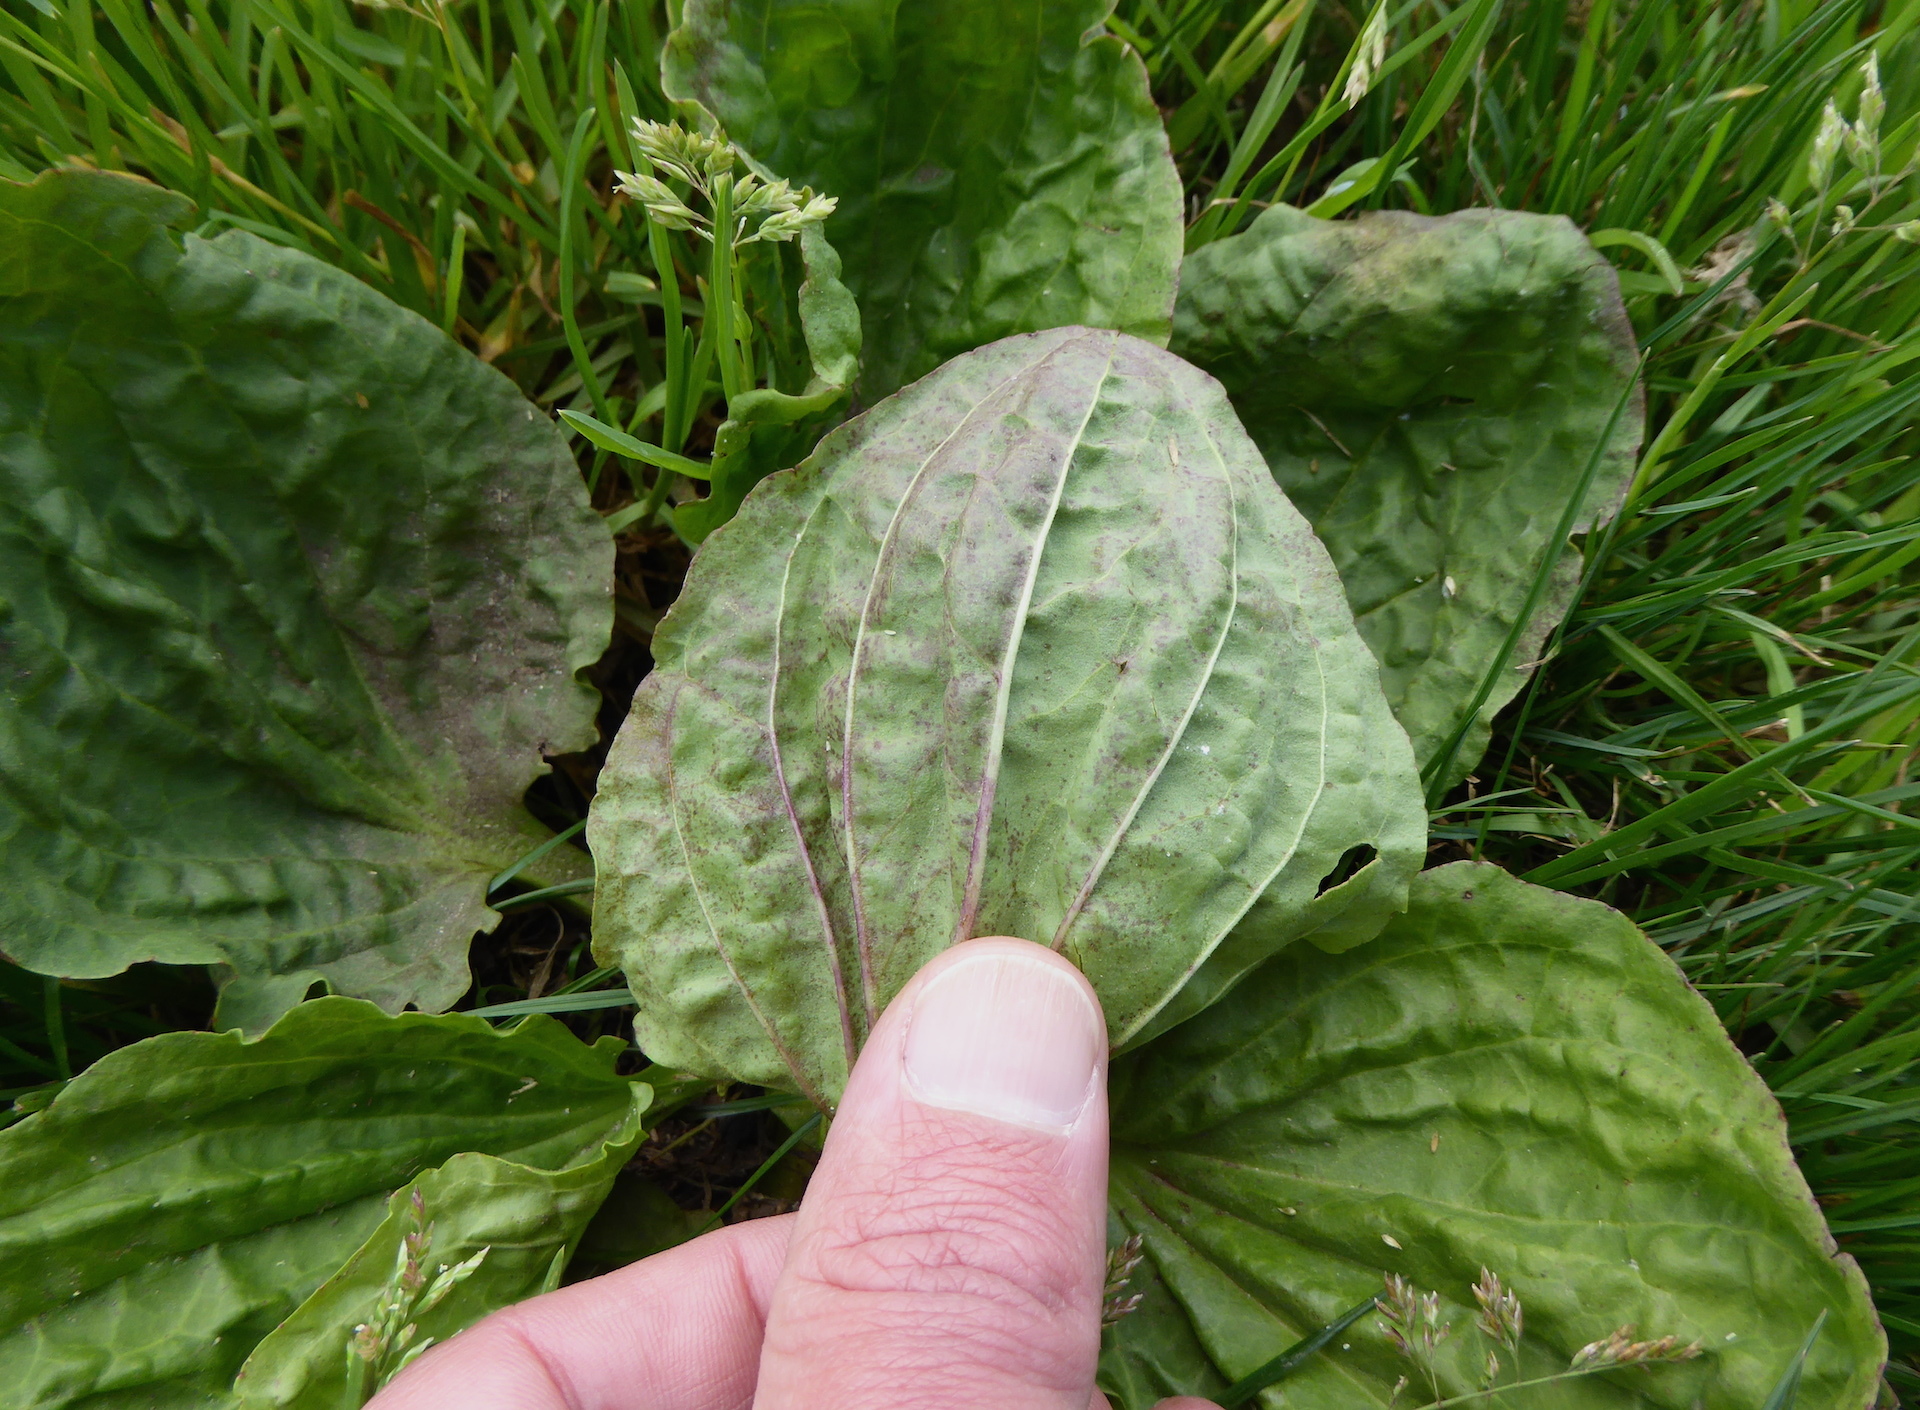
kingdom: Plantae
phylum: Tracheophyta
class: Magnoliopsida
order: Lamiales
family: Plantaginaceae
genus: Plantago
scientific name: Plantago major
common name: Common plantain
